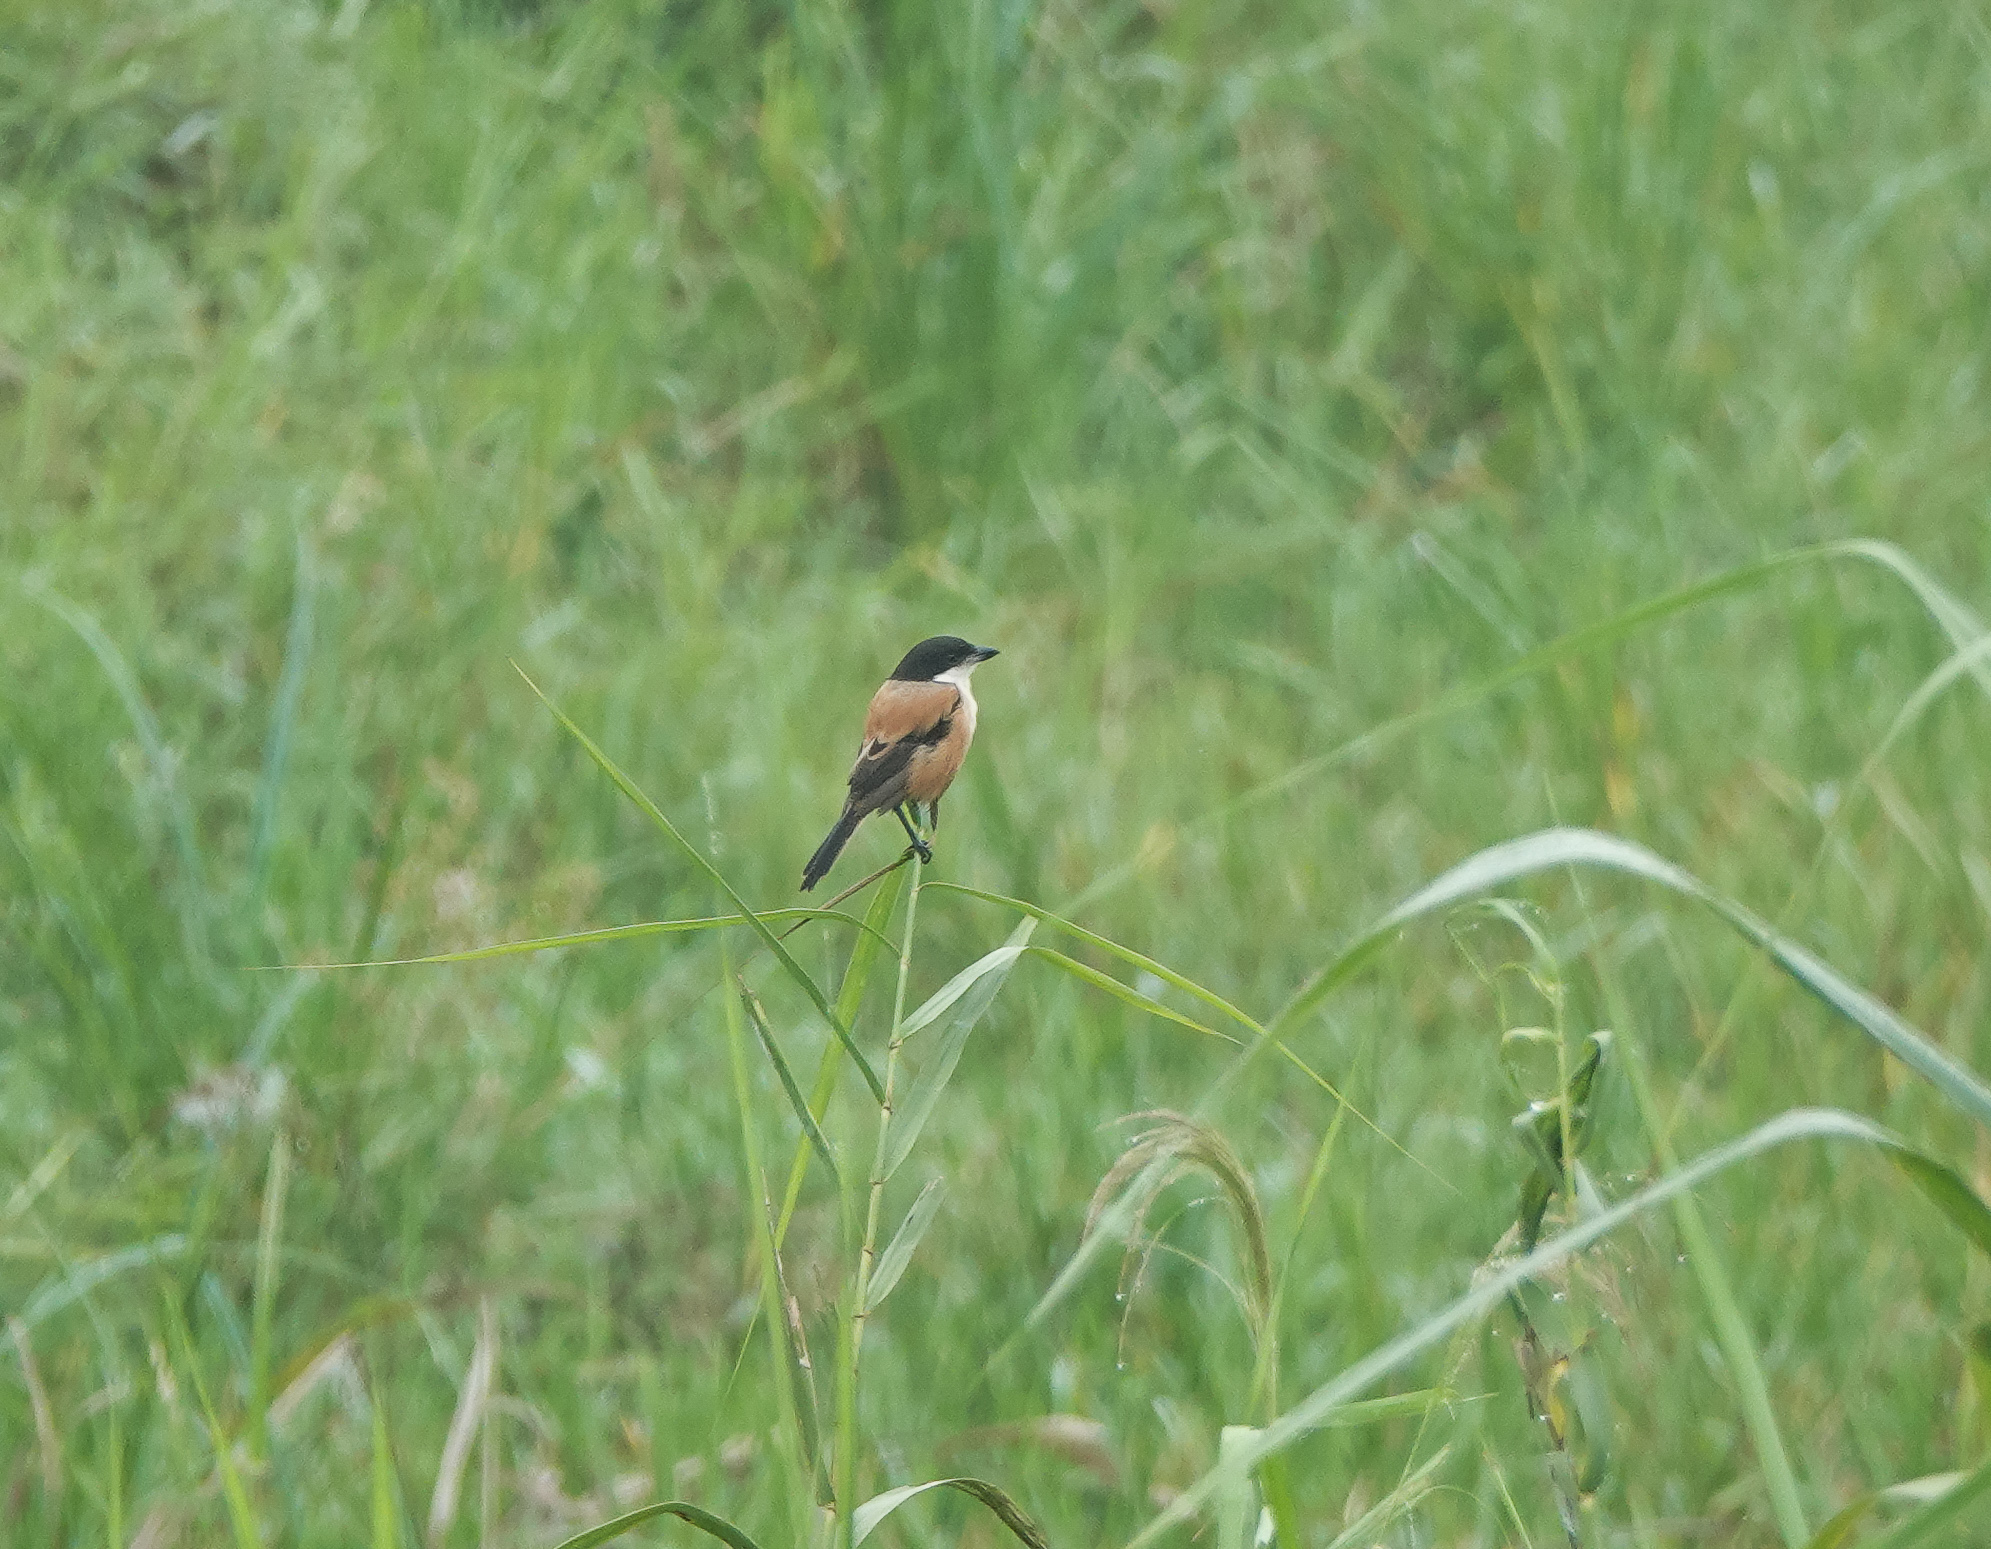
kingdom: Animalia
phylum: Chordata
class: Aves
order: Passeriformes
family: Laniidae
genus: Lanius
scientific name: Lanius schach
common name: Long-tailed shrike
